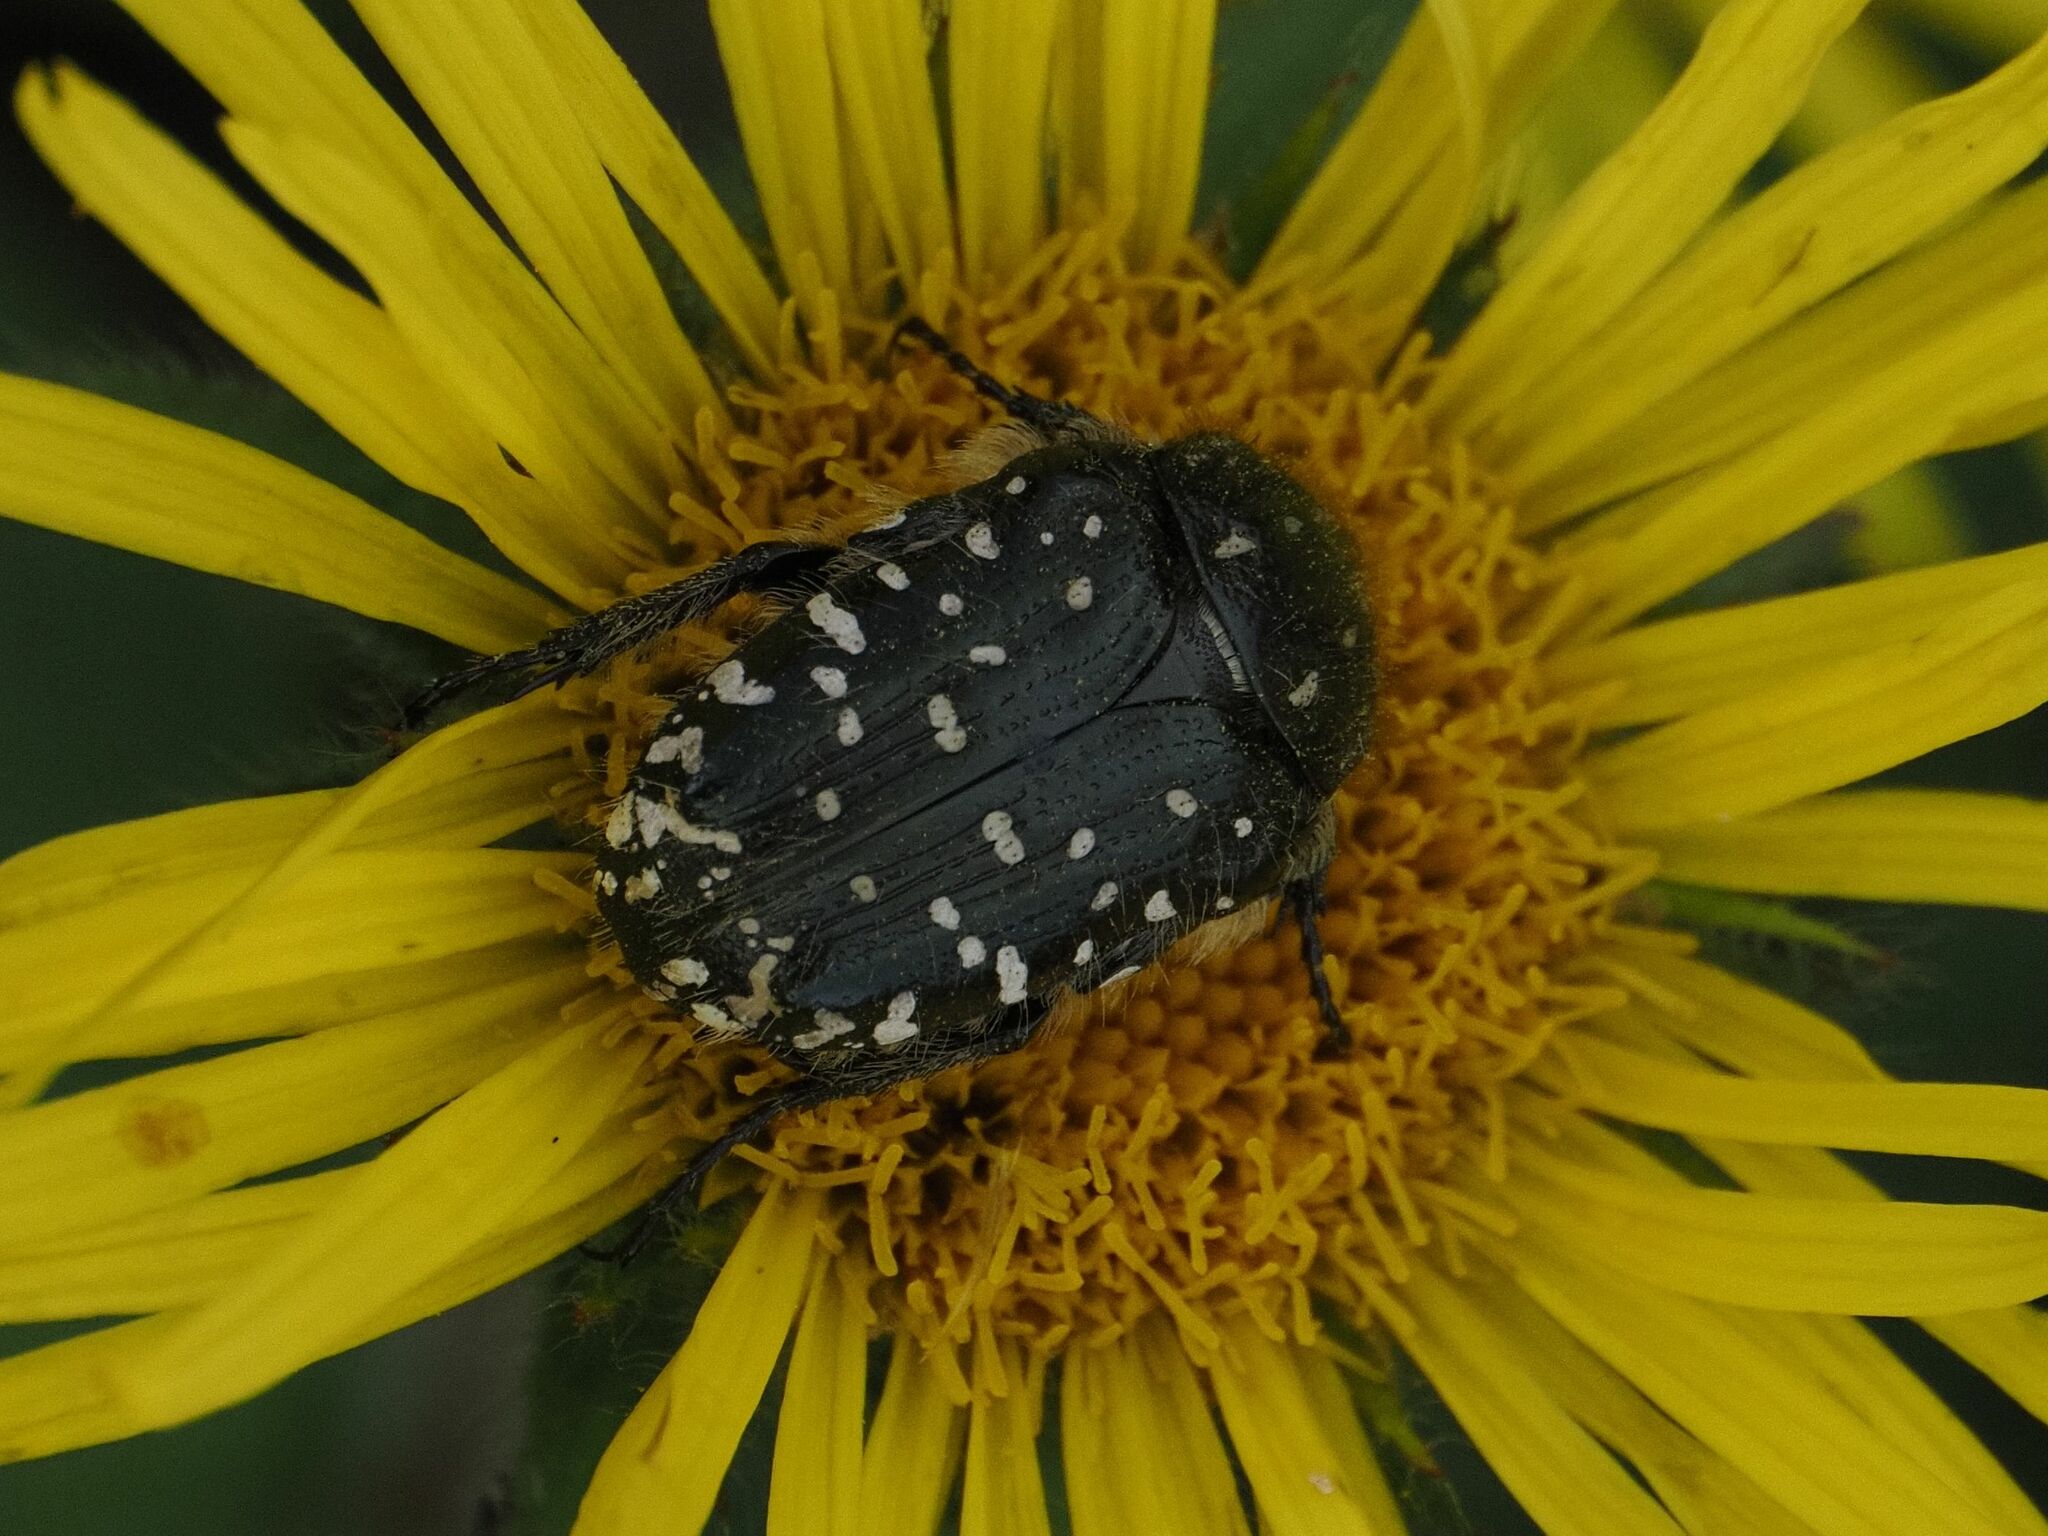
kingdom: Animalia
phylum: Arthropoda
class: Insecta
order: Coleoptera
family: Scarabaeidae
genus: Oxythyrea
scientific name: Oxythyrea funesta
